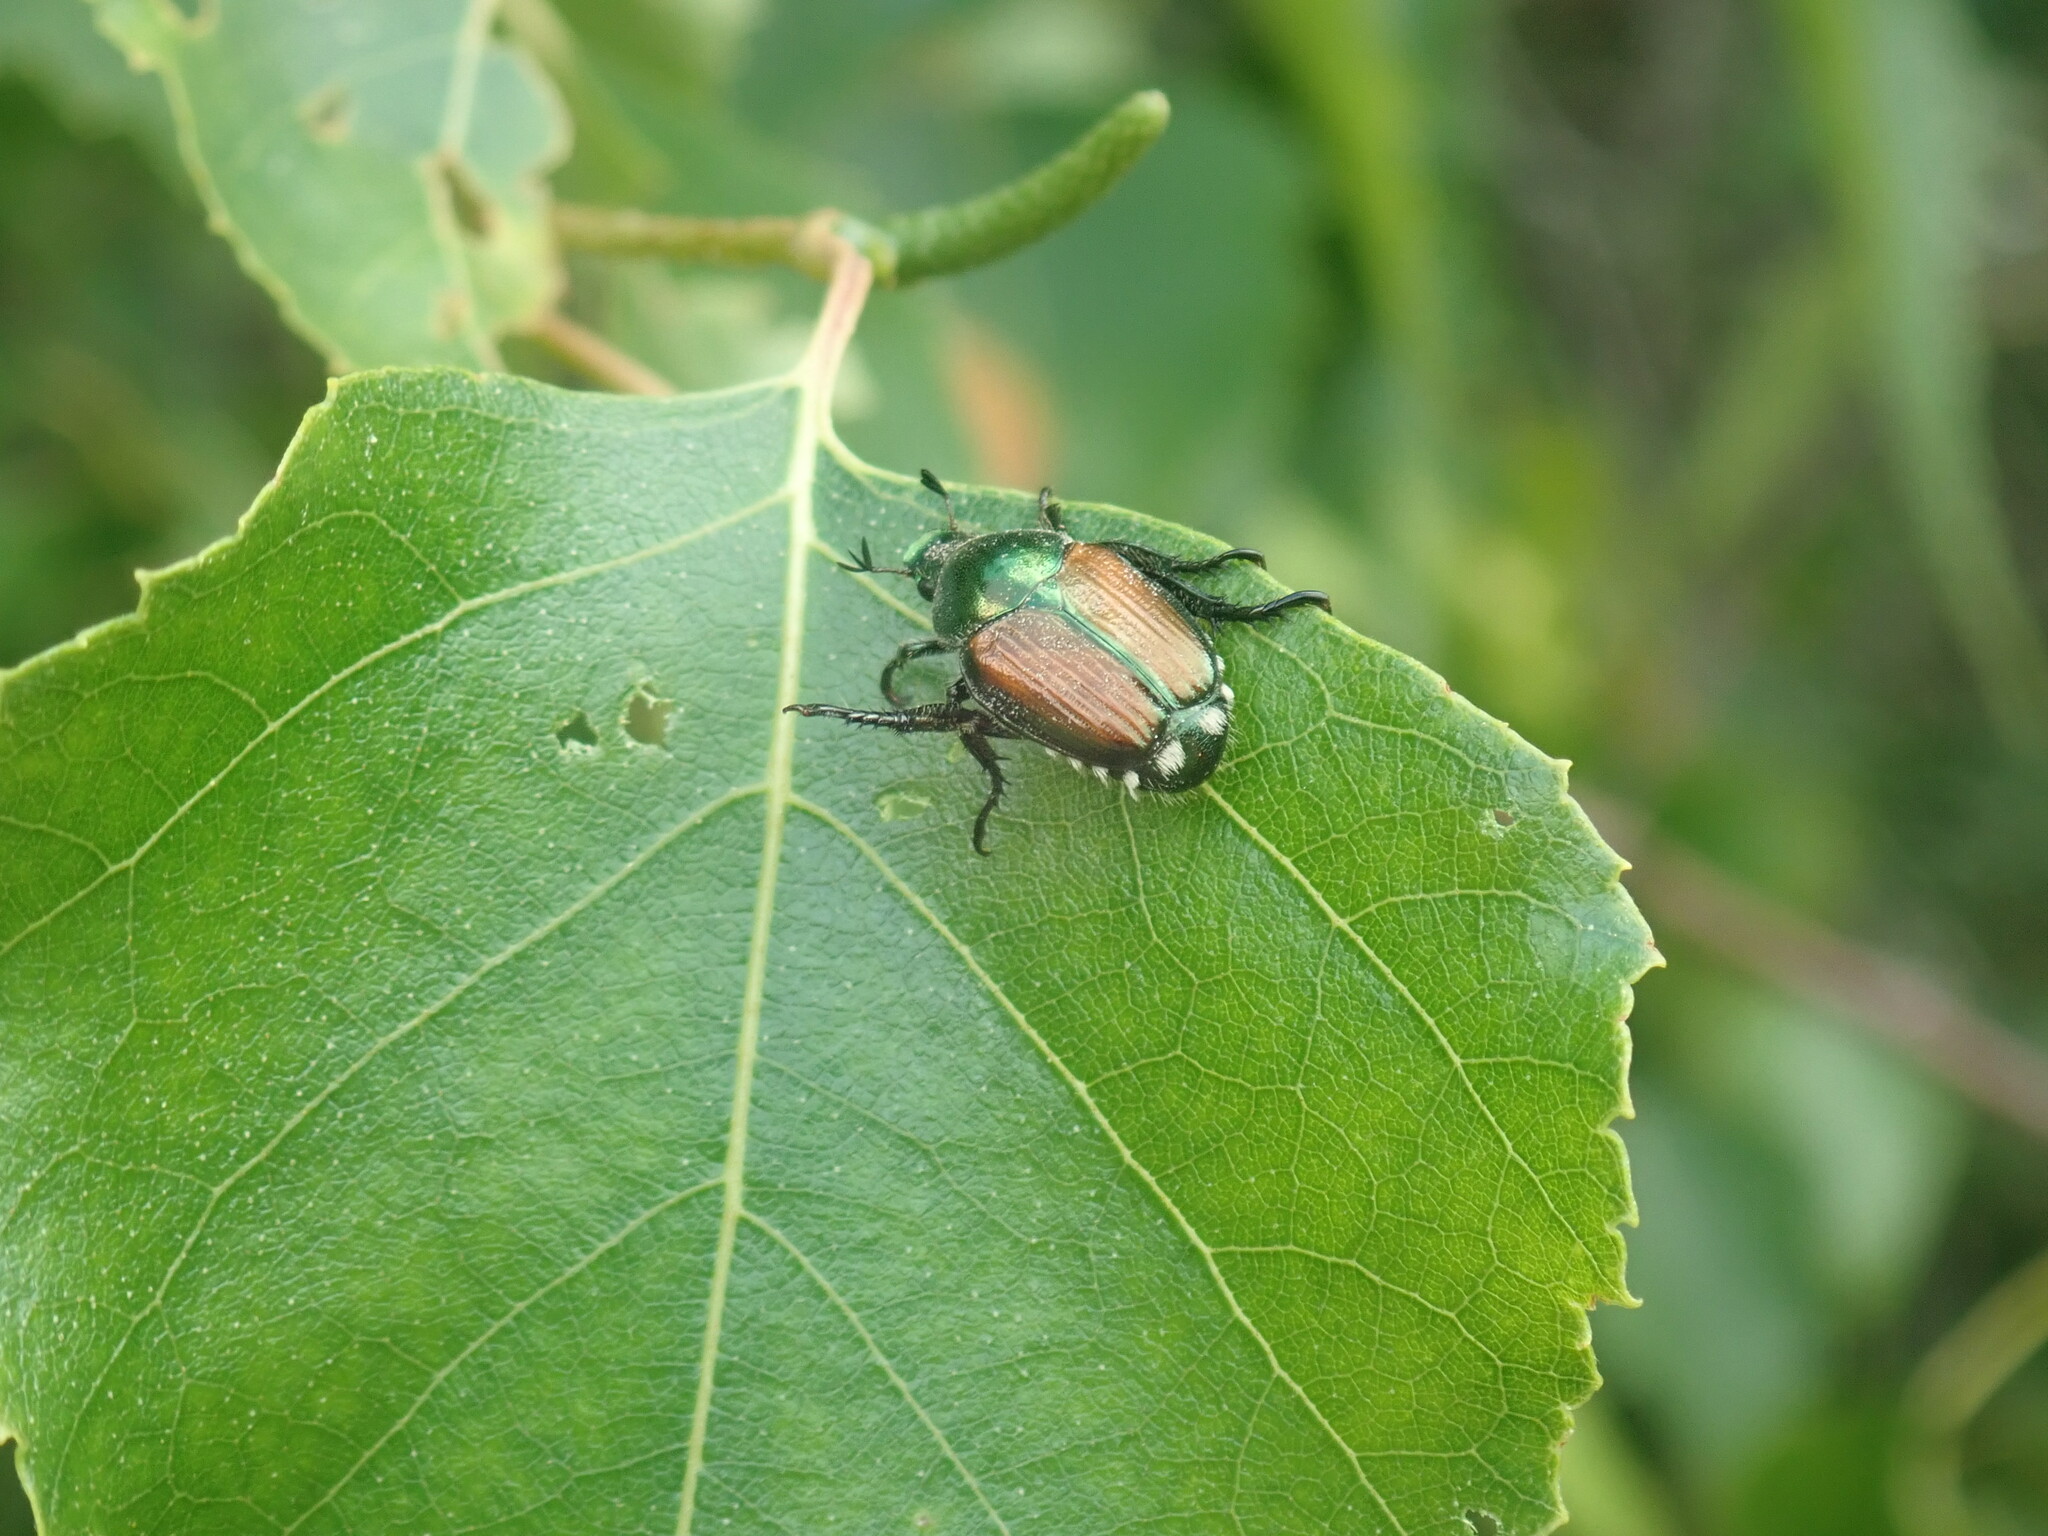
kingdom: Animalia
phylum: Arthropoda
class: Insecta
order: Coleoptera
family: Scarabaeidae
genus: Popillia
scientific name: Popillia japonica
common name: Japanese beetle
